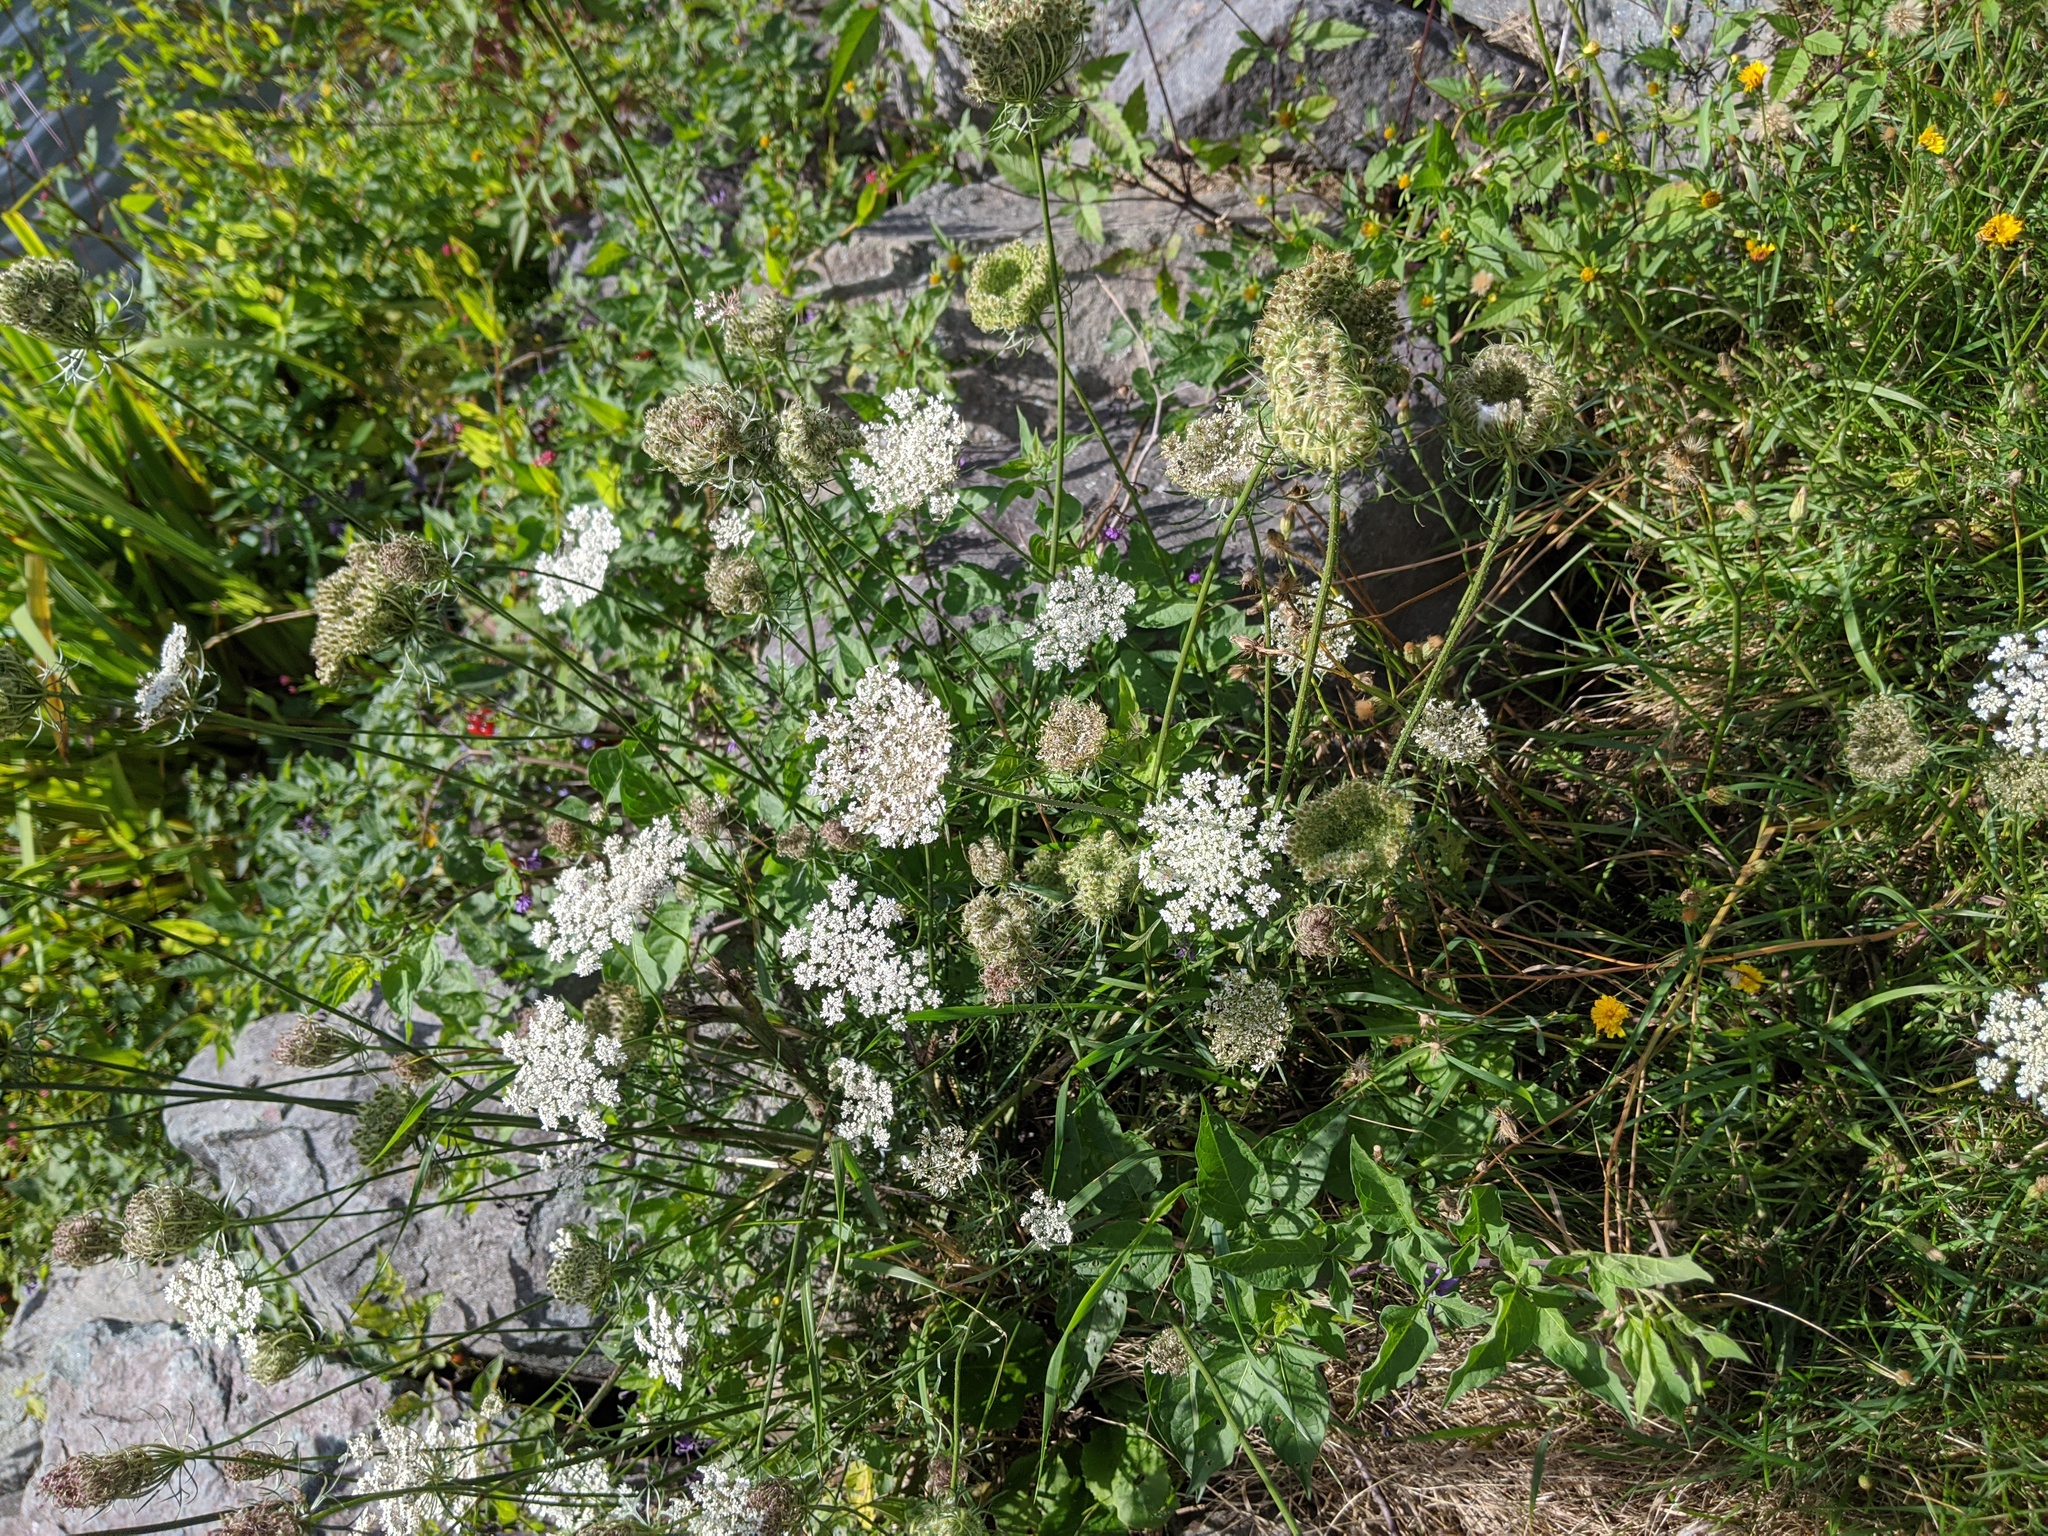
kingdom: Plantae
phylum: Tracheophyta
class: Magnoliopsida
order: Apiales
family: Apiaceae
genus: Daucus
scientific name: Daucus carota
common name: Wild carrot
